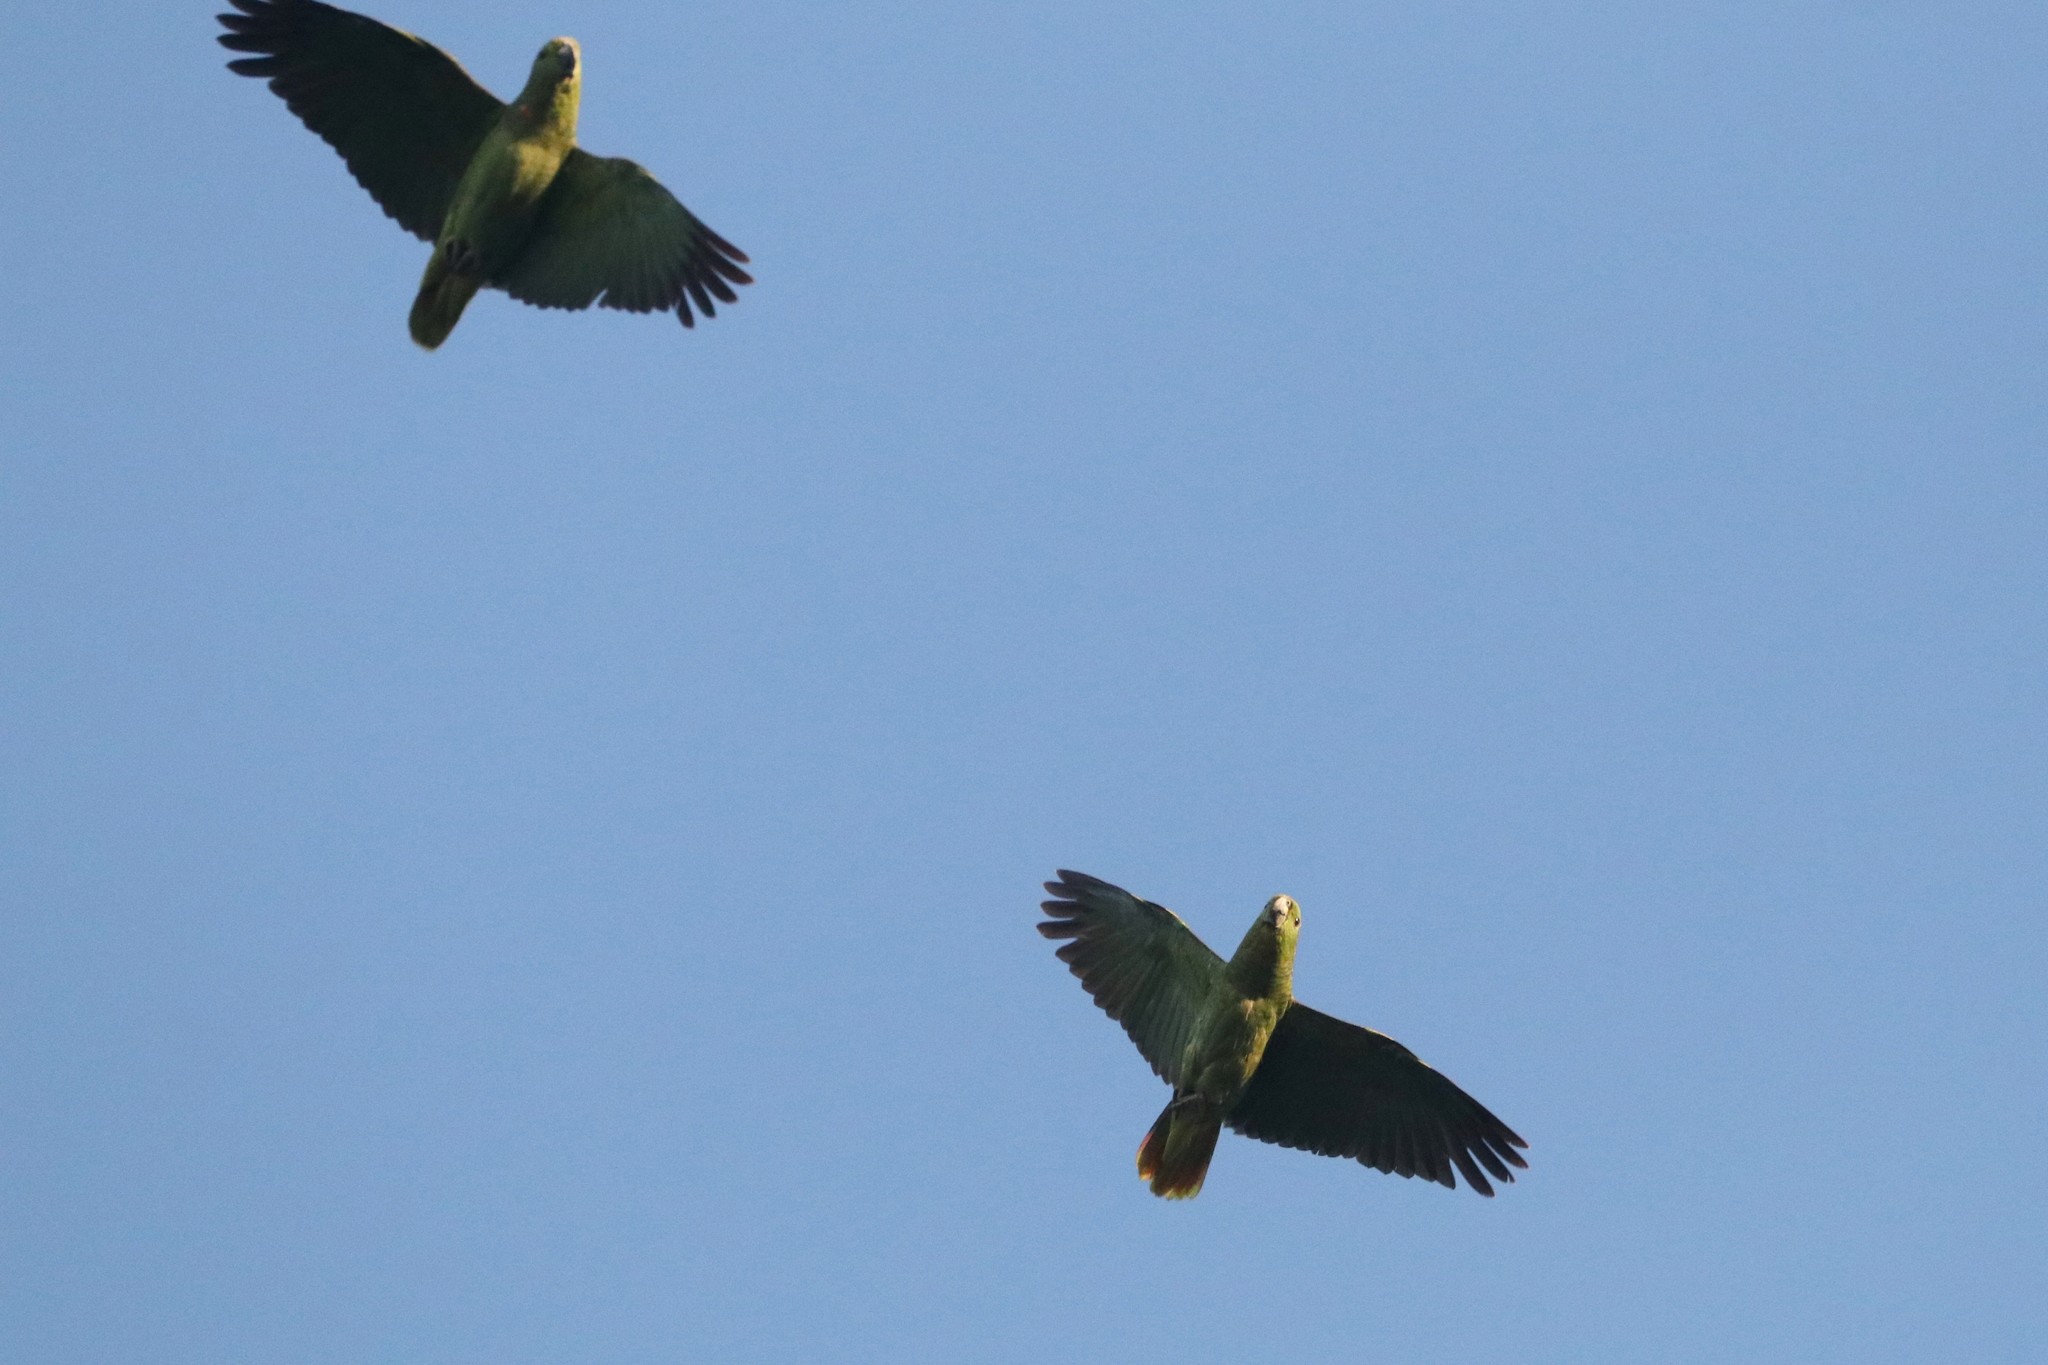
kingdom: Animalia
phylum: Chordata
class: Aves
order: Psittaciformes
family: Psittacidae
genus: Amazona
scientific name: Amazona mercenaria
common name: Scaly-naped amazon
